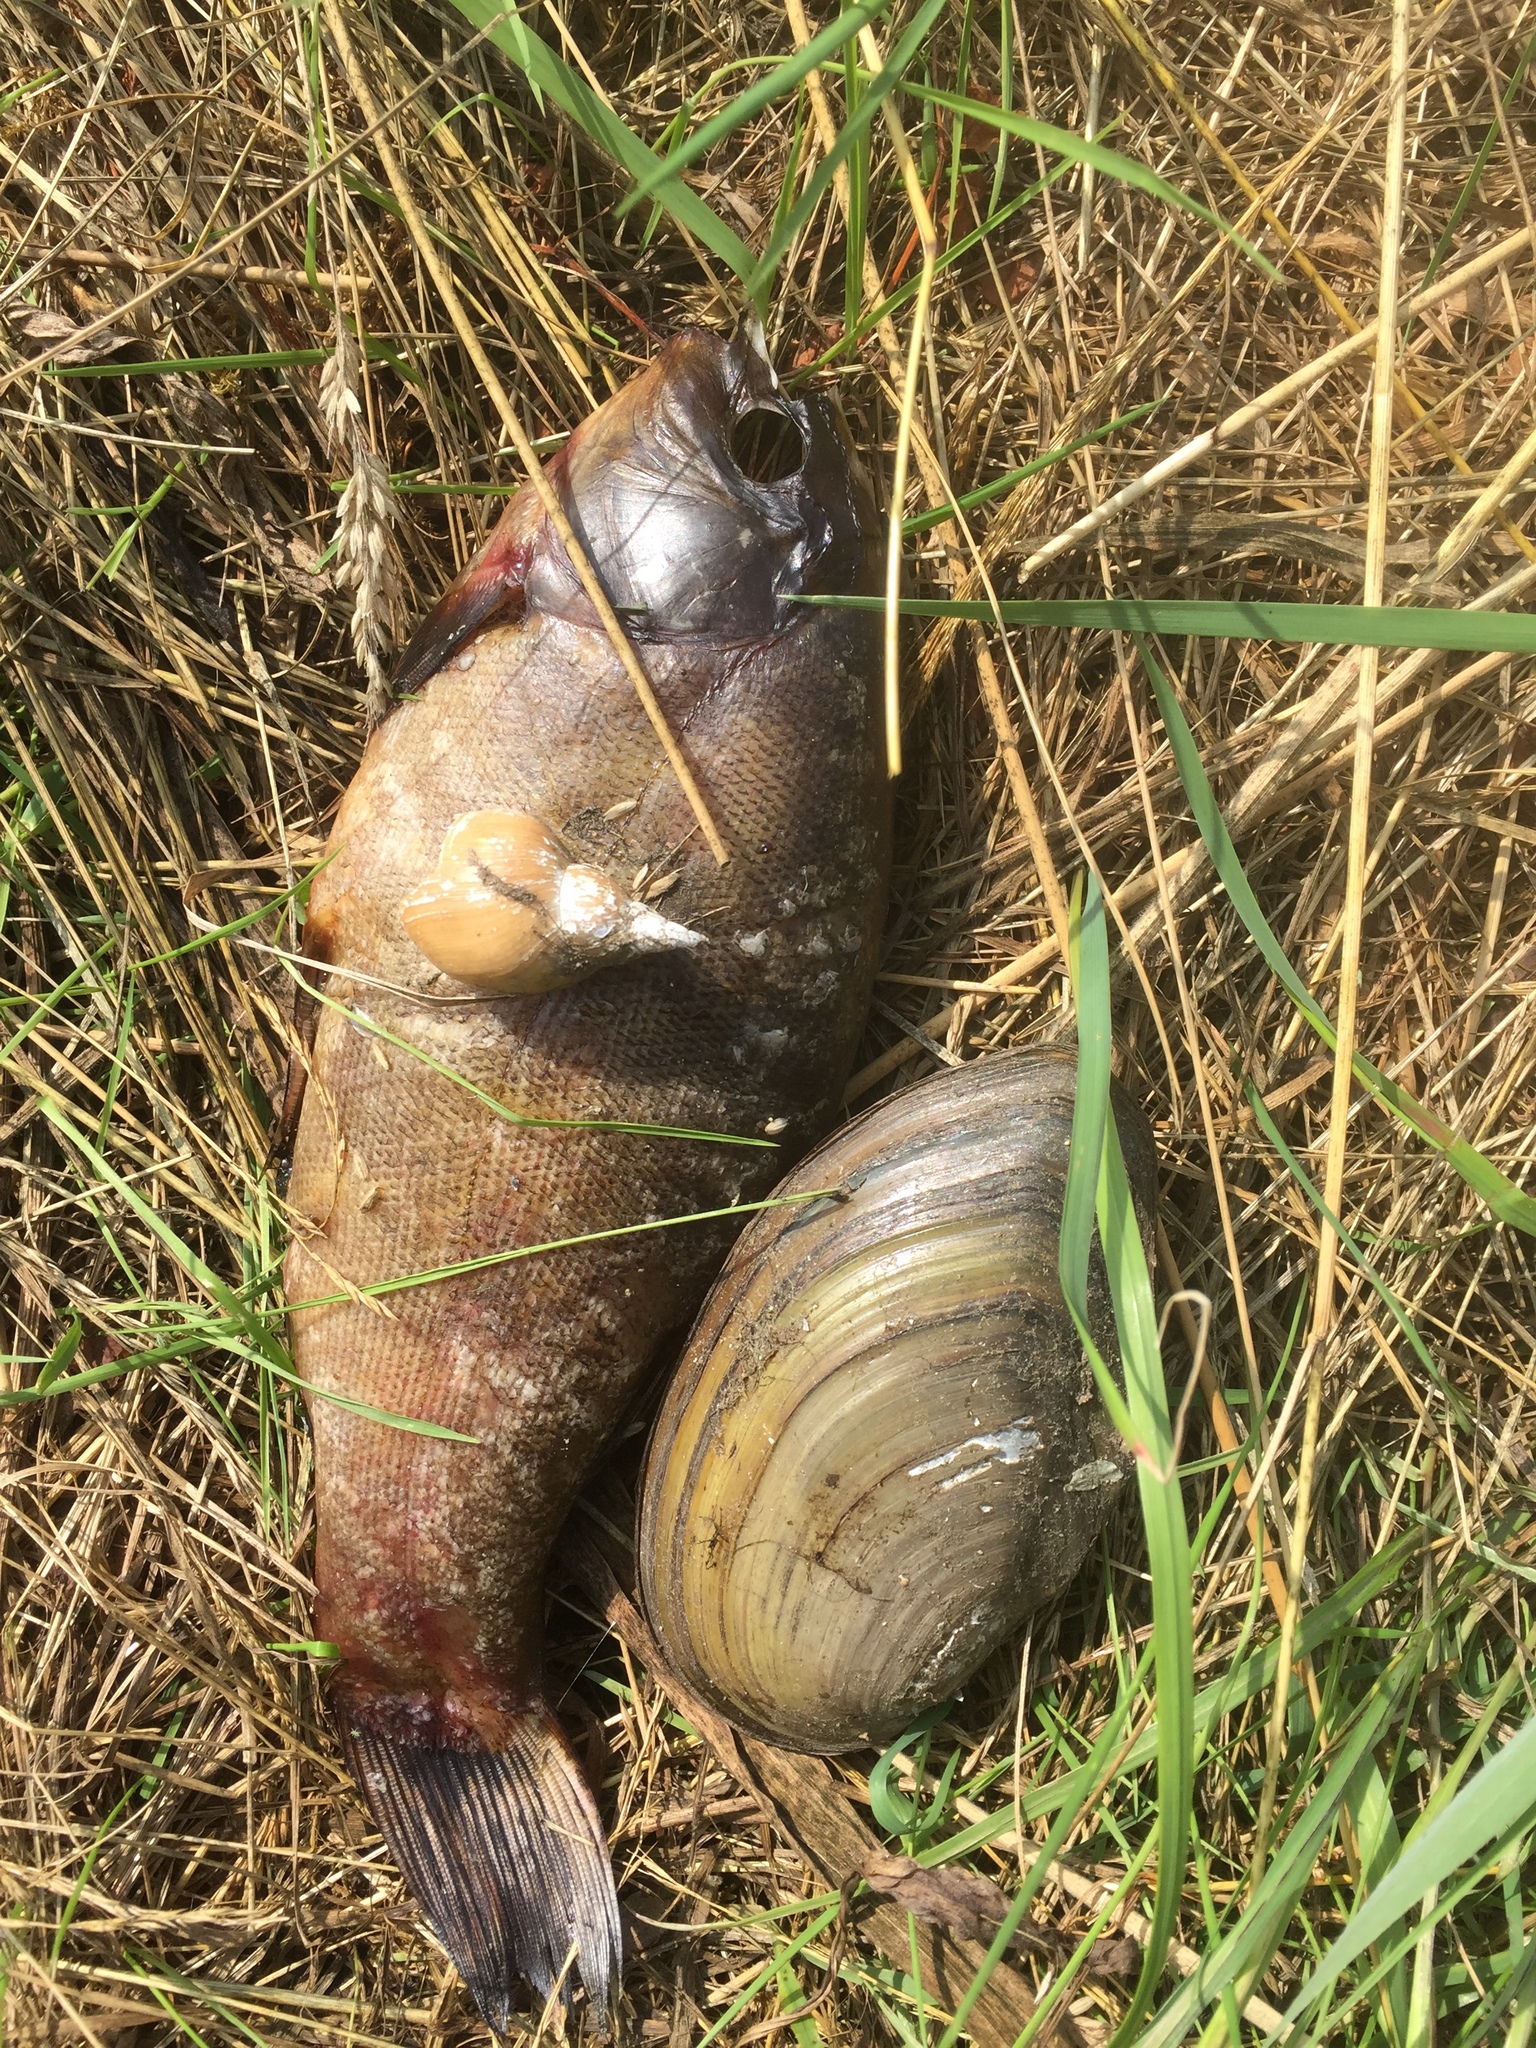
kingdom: Animalia
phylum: Mollusca
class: Gastropoda
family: Lymnaeidae
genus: Lymnaea
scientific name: Lymnaea stagnalis
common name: Great pond snail
